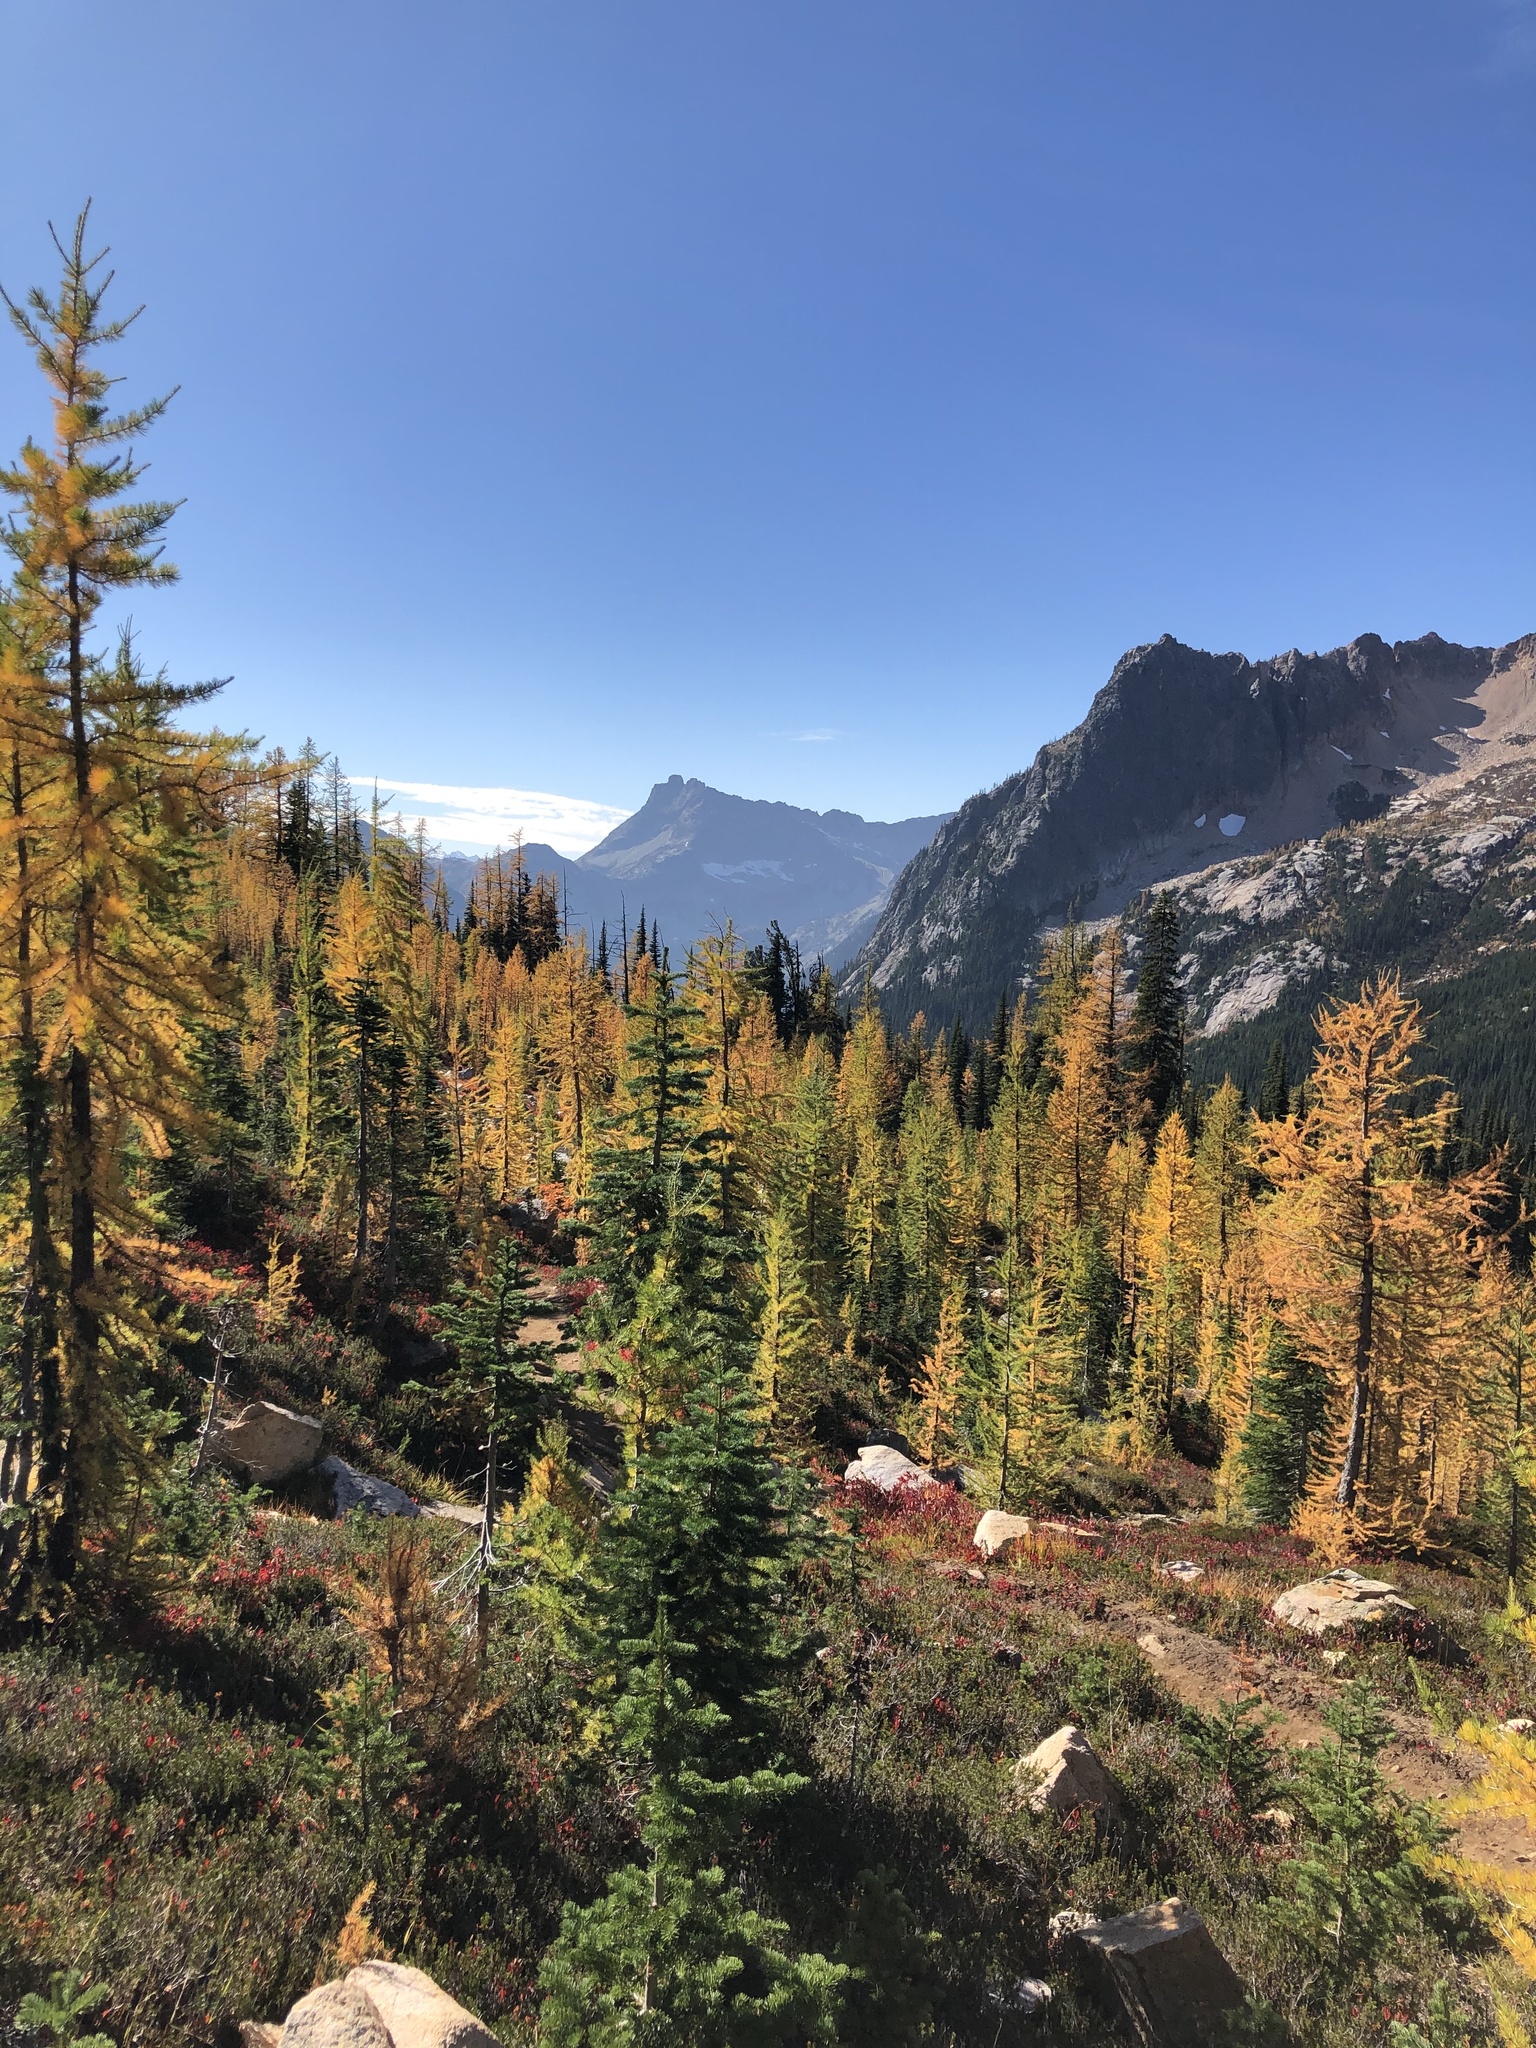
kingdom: Plantae
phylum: Tracheophyta
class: Pinopsida
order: Pinales
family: Pinaceae
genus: Larix
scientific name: Larix lyallii
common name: Alpine larch
